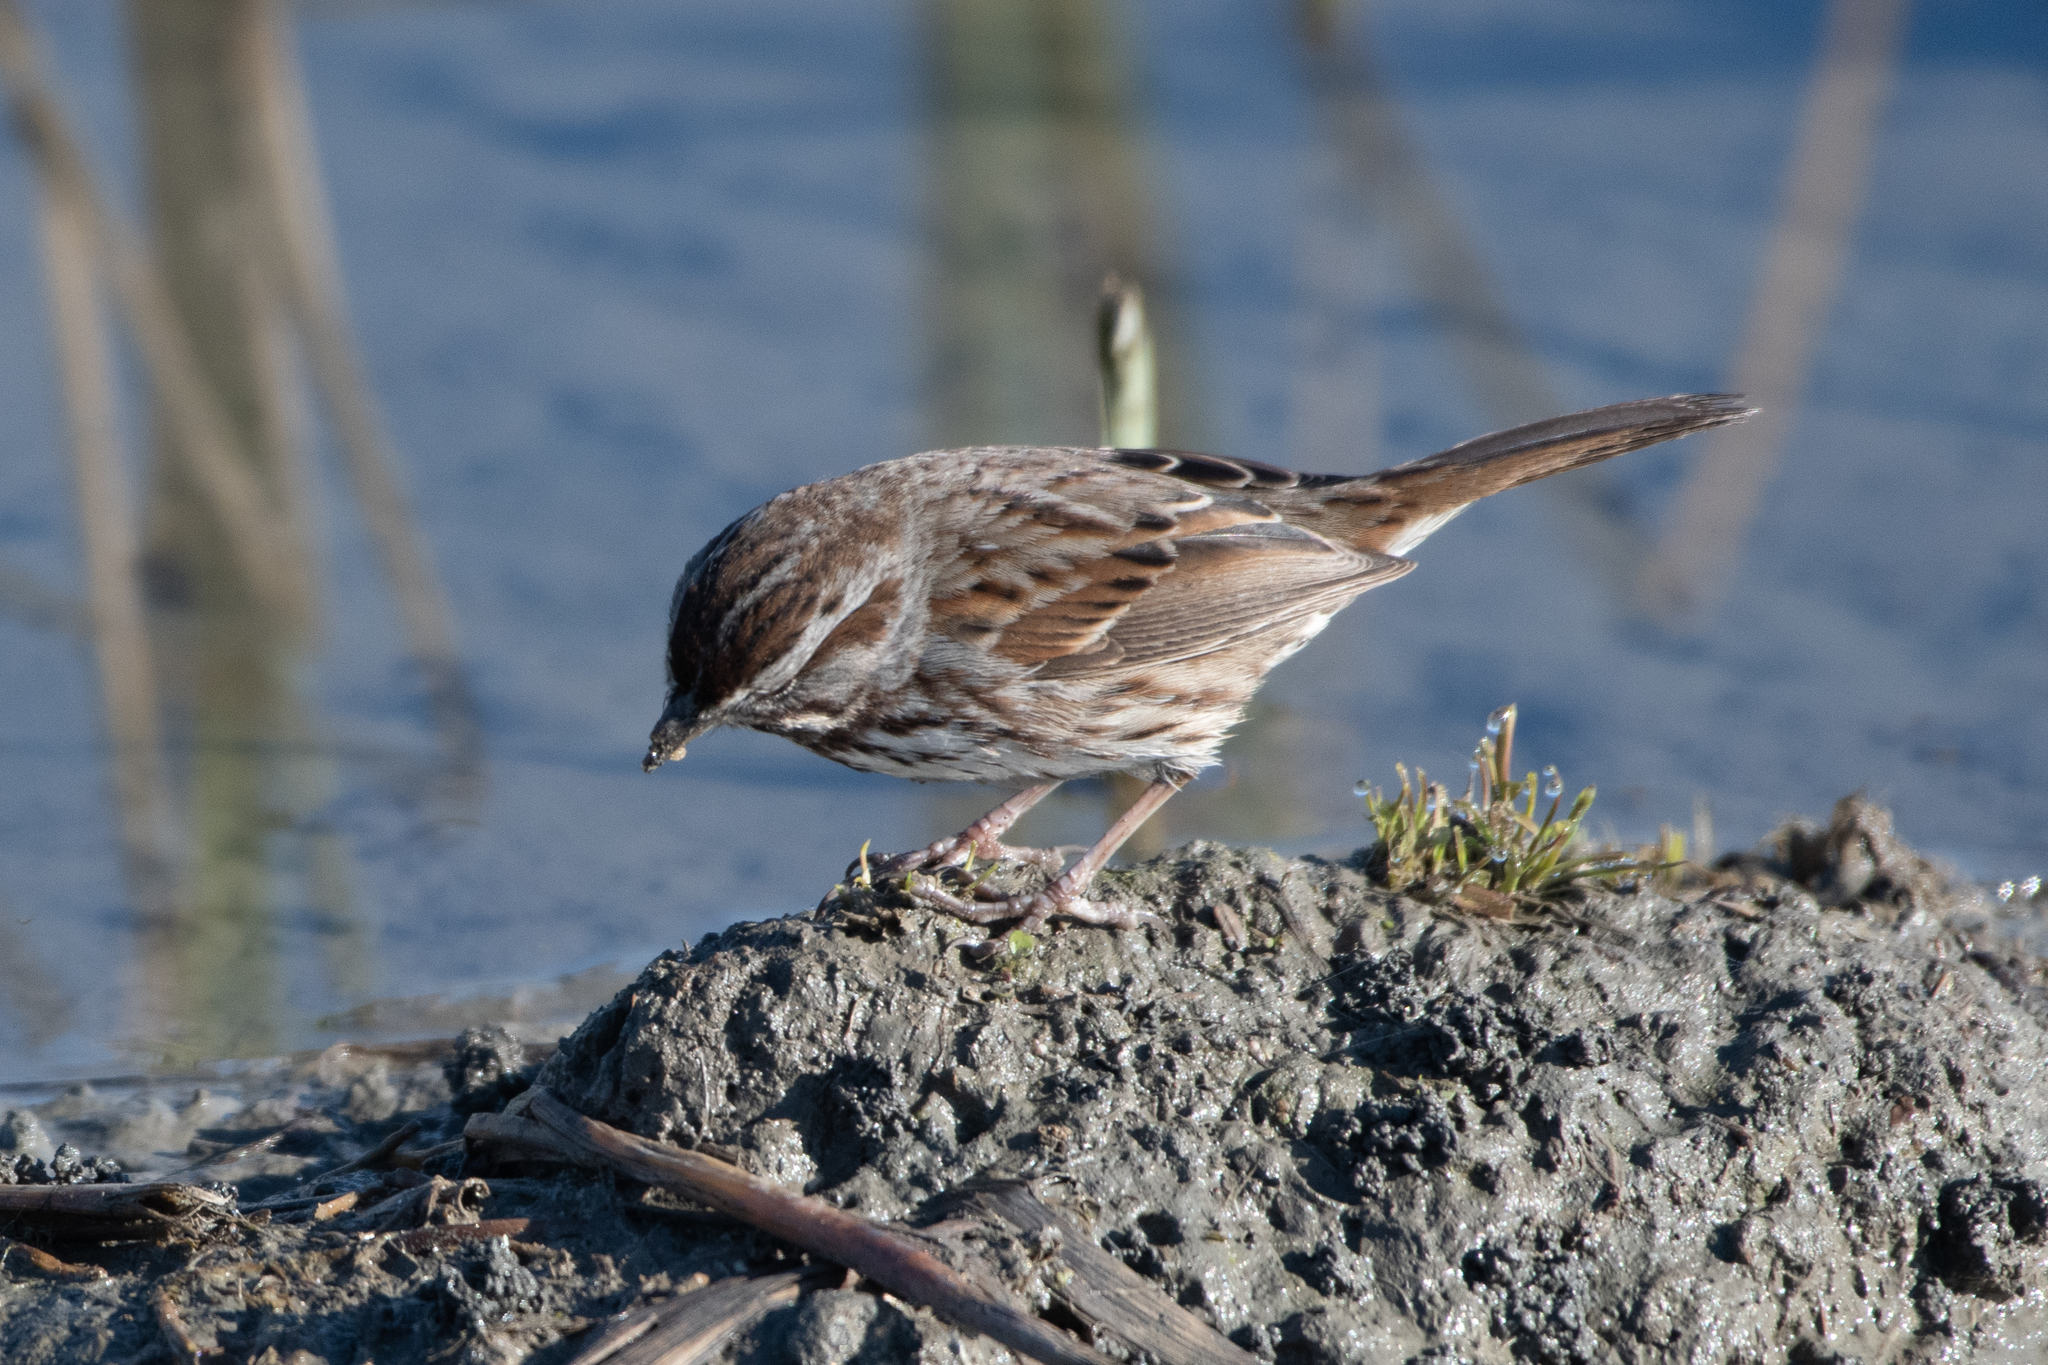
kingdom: Animalia
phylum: Chordata
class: Aves
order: Passeriformes
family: Passerellidae
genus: Melospiza
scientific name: Melospiza melodia
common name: Song sparrow
